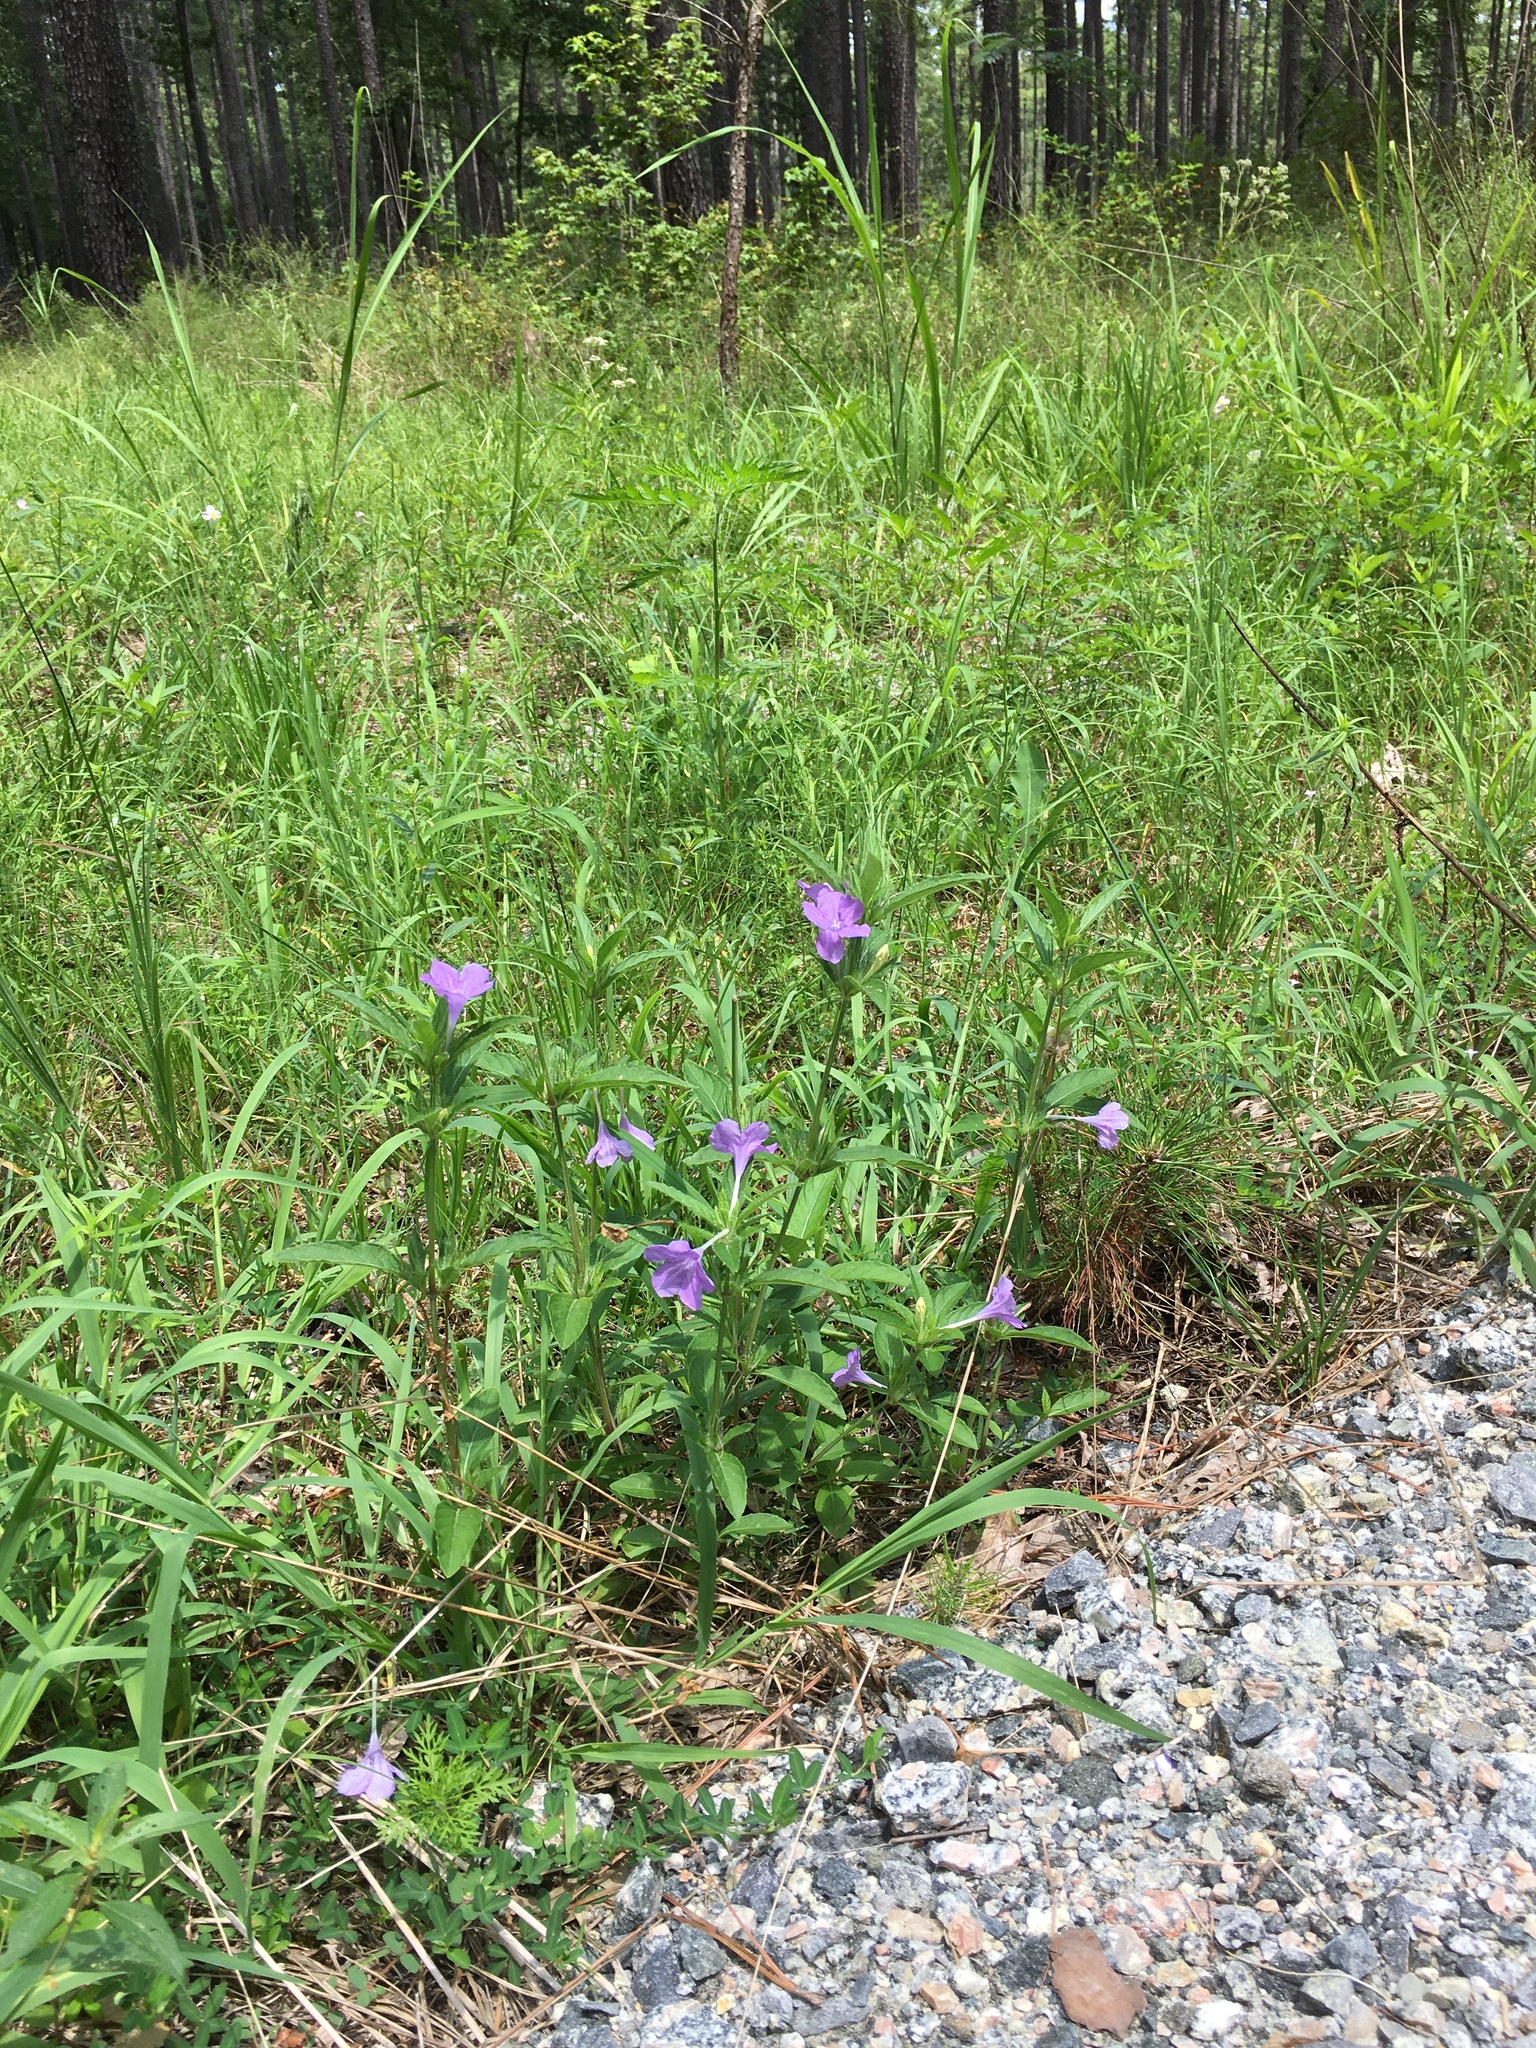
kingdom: Plantae
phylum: Tracheophyta
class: Magnoliopsida
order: Lamiales
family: Acanthaceae
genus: Ruellia
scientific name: Ruellia caroliniensis
